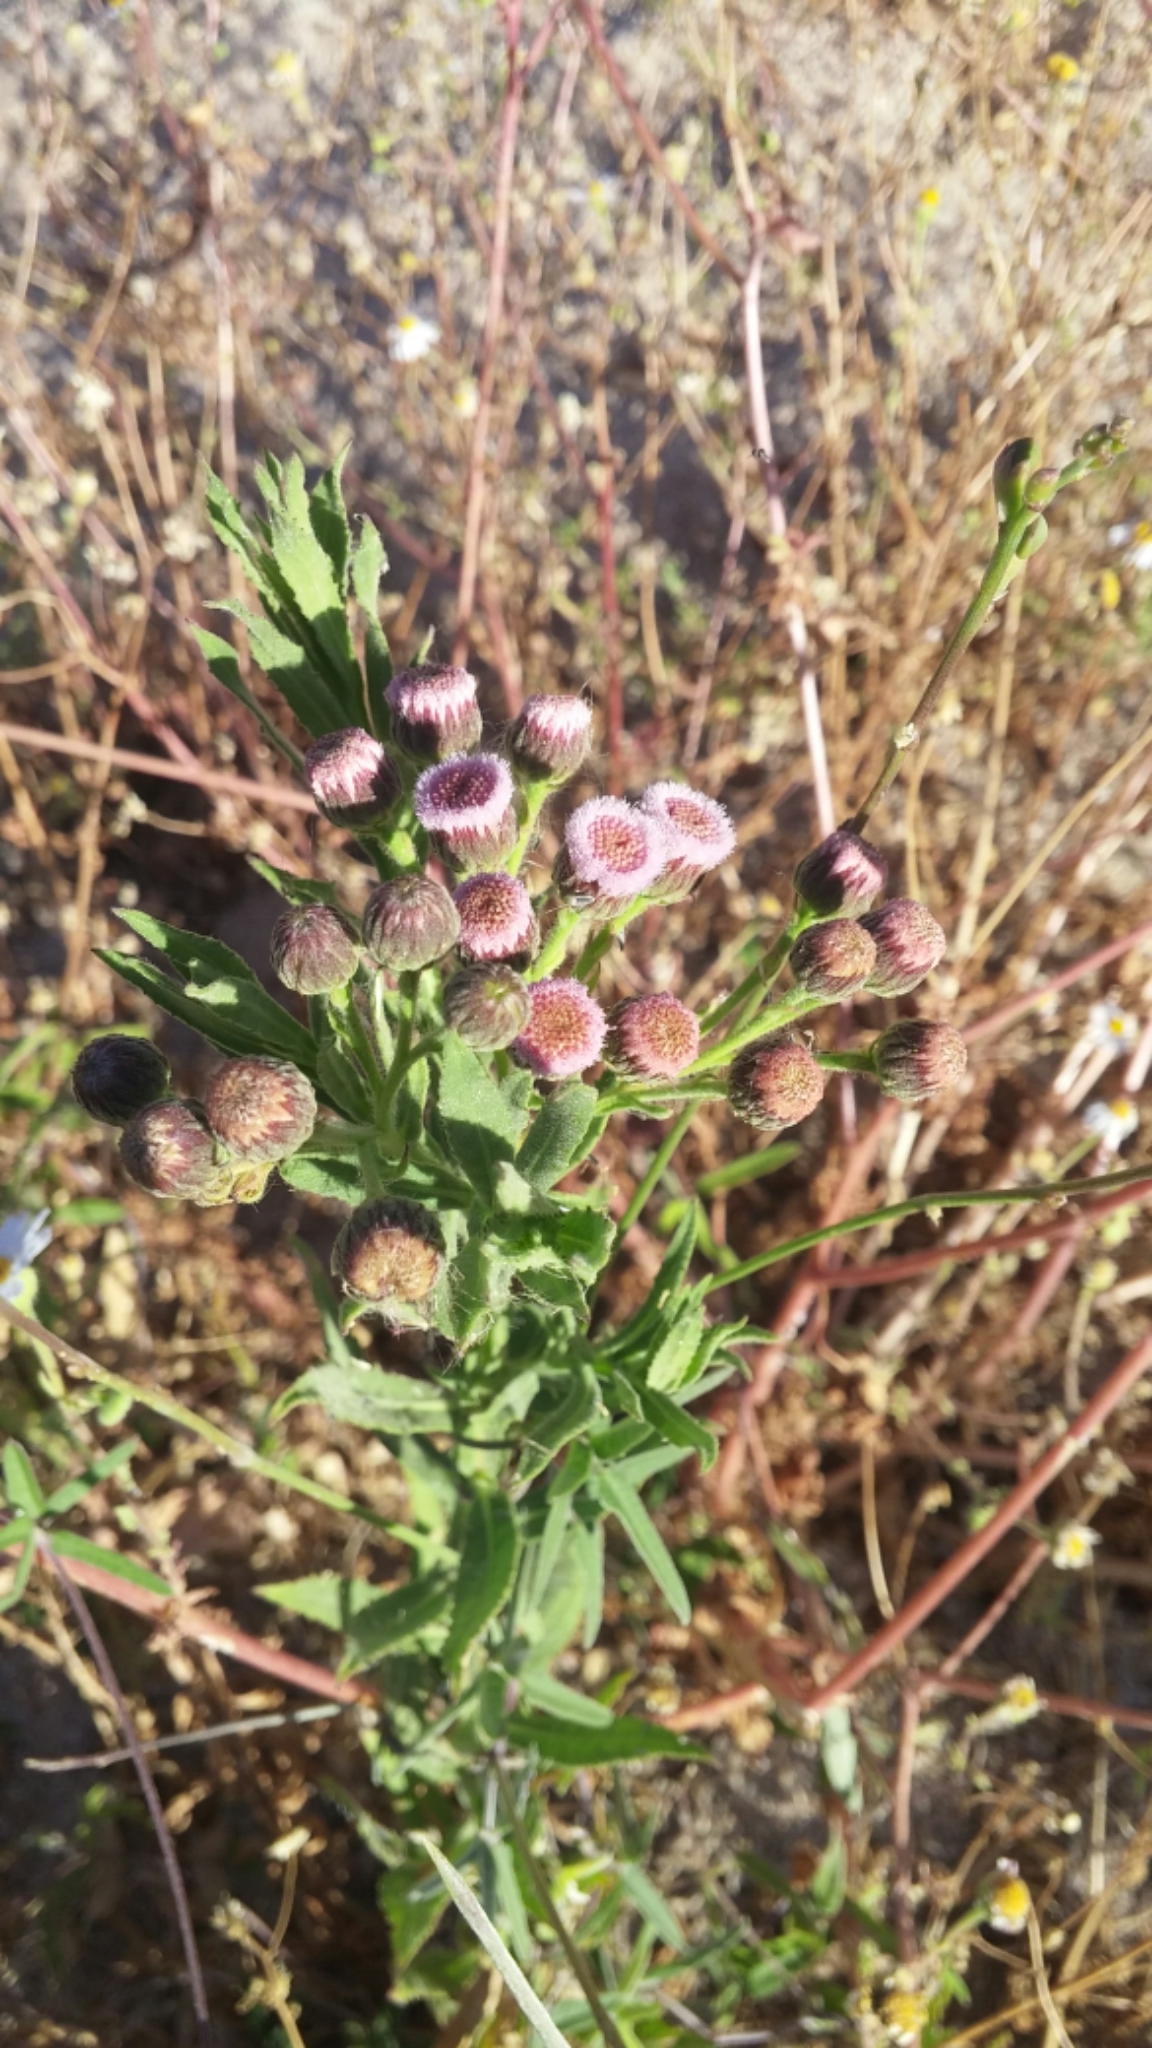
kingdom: Plantae
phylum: Tracheophyta
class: Magnoliopsida
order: Asterales
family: Asteraceae
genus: Pluchea
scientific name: Pluchea salicifolia
